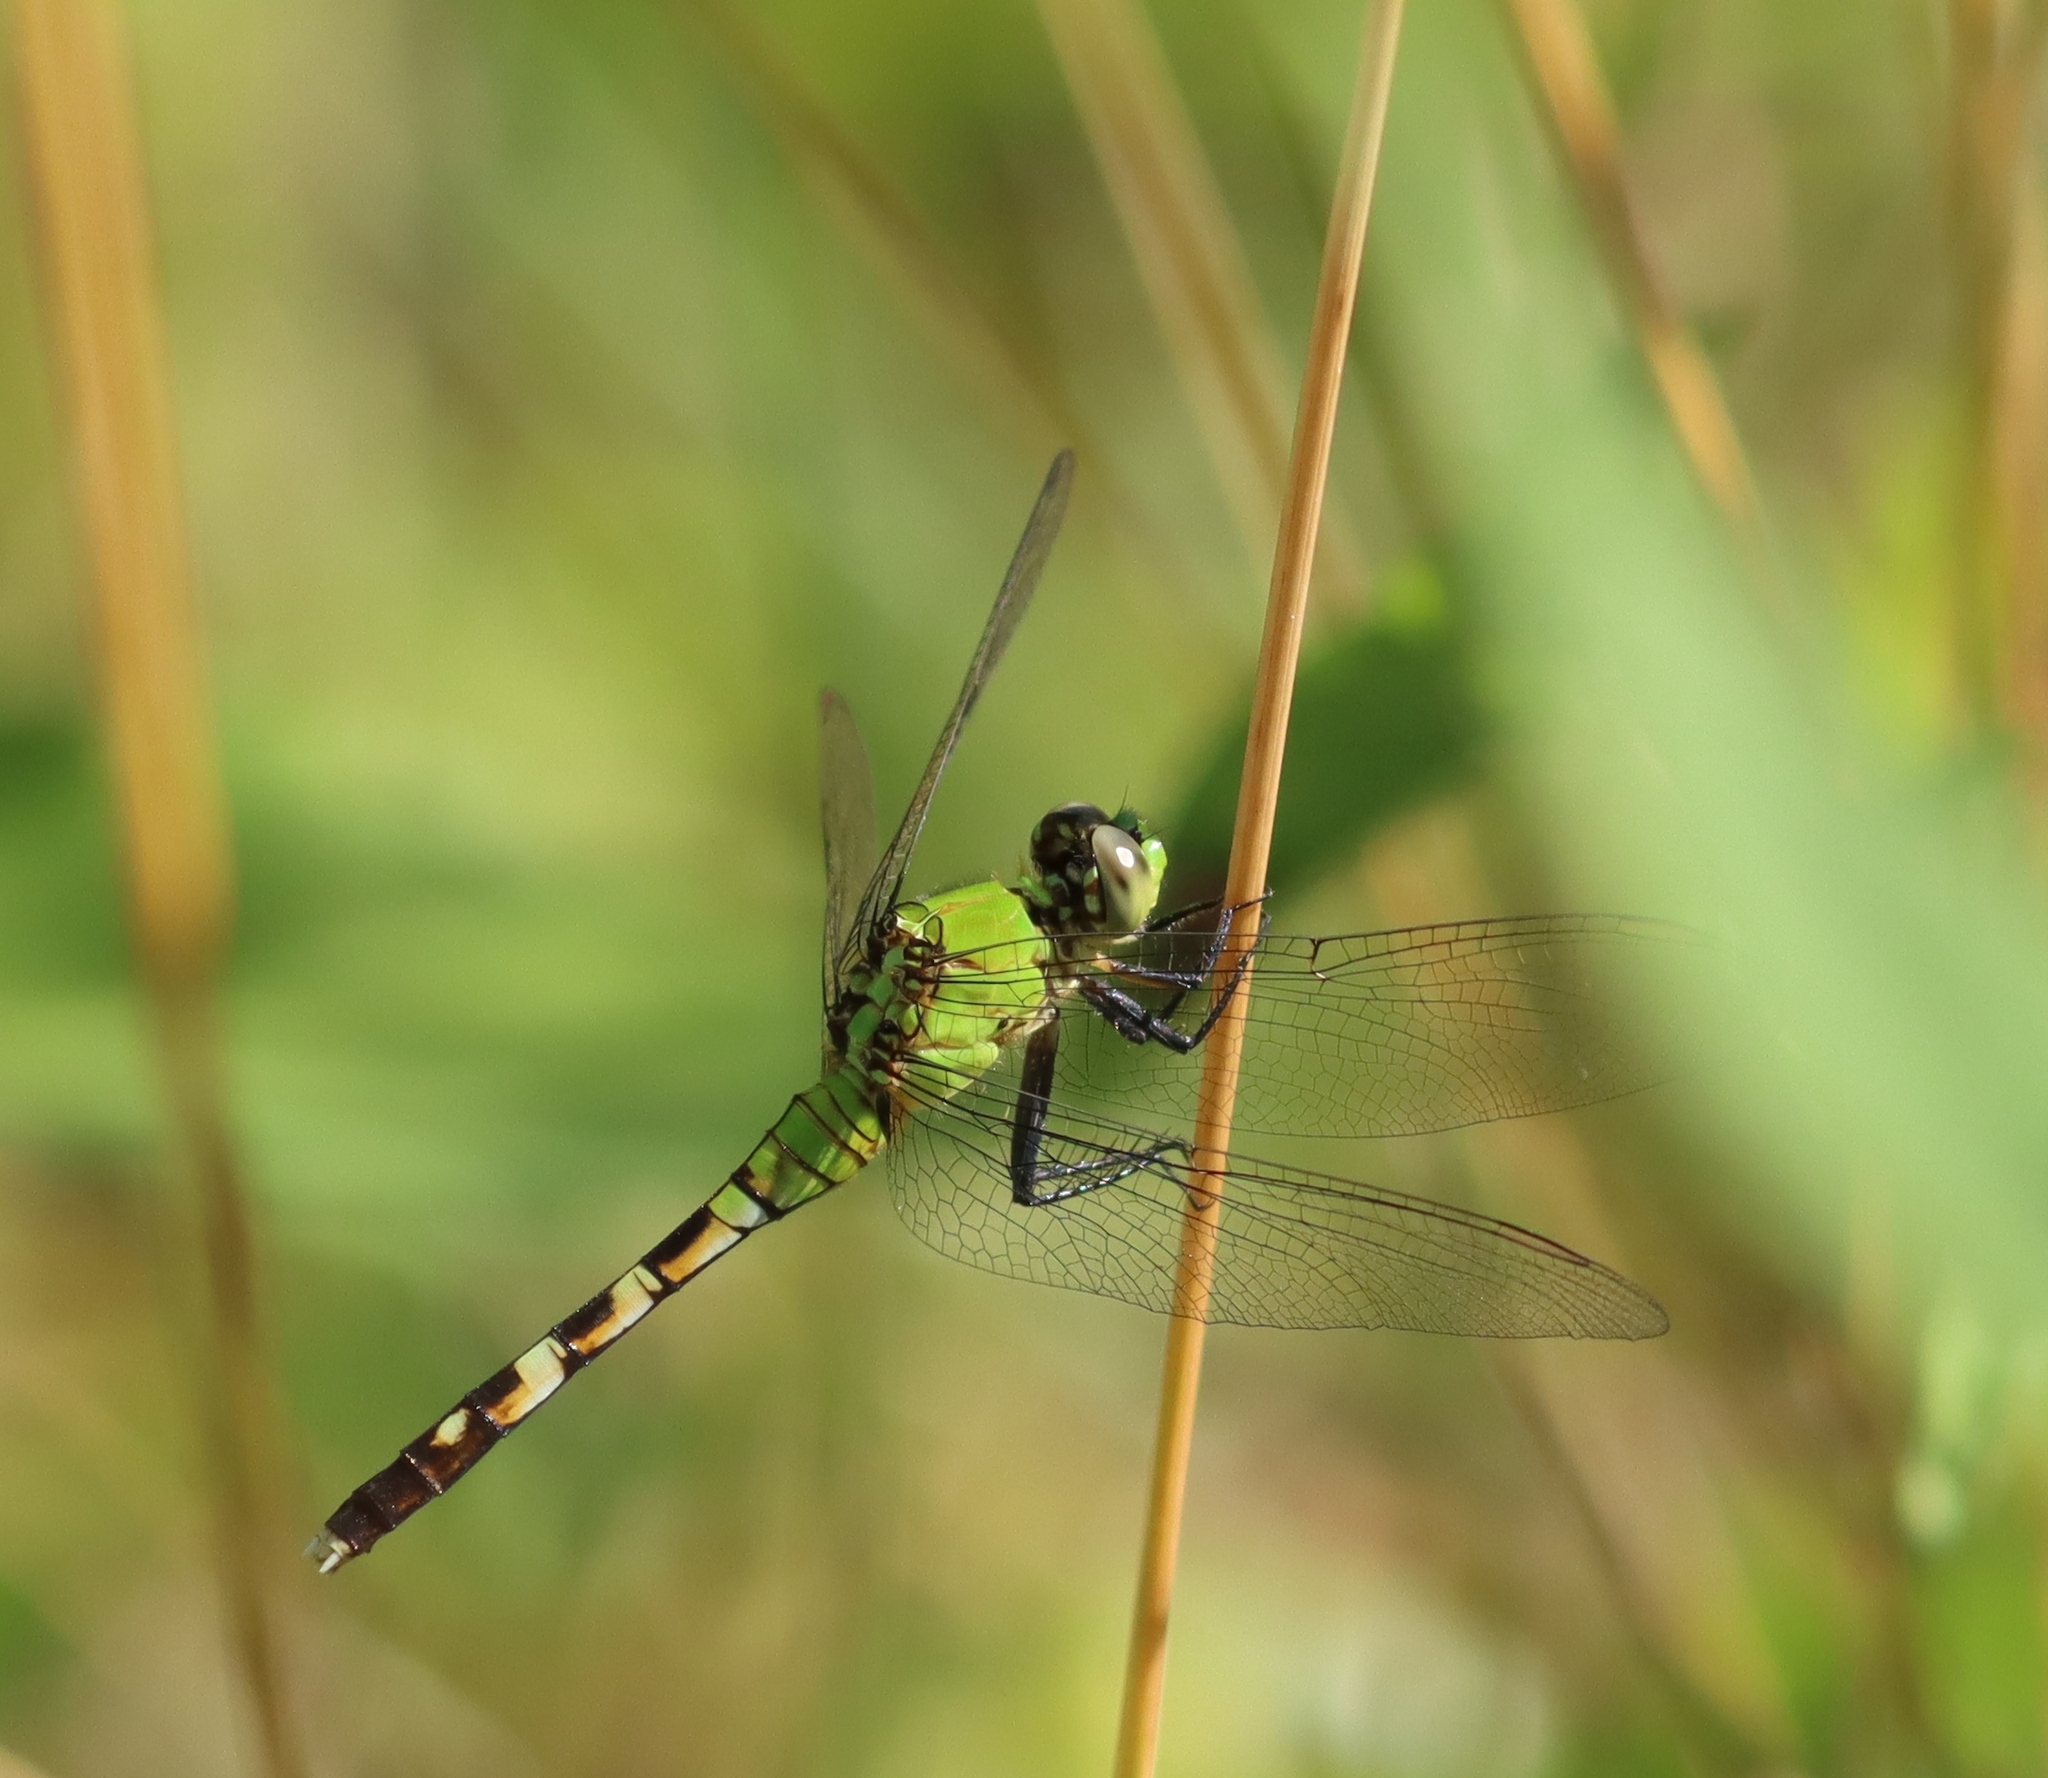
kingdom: Animalia
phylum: Arthropoda
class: Insecta
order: Odonata
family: Libellulidae
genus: Erythemis
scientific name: Erythemis simplicicollis
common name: Eastern pondhawk
